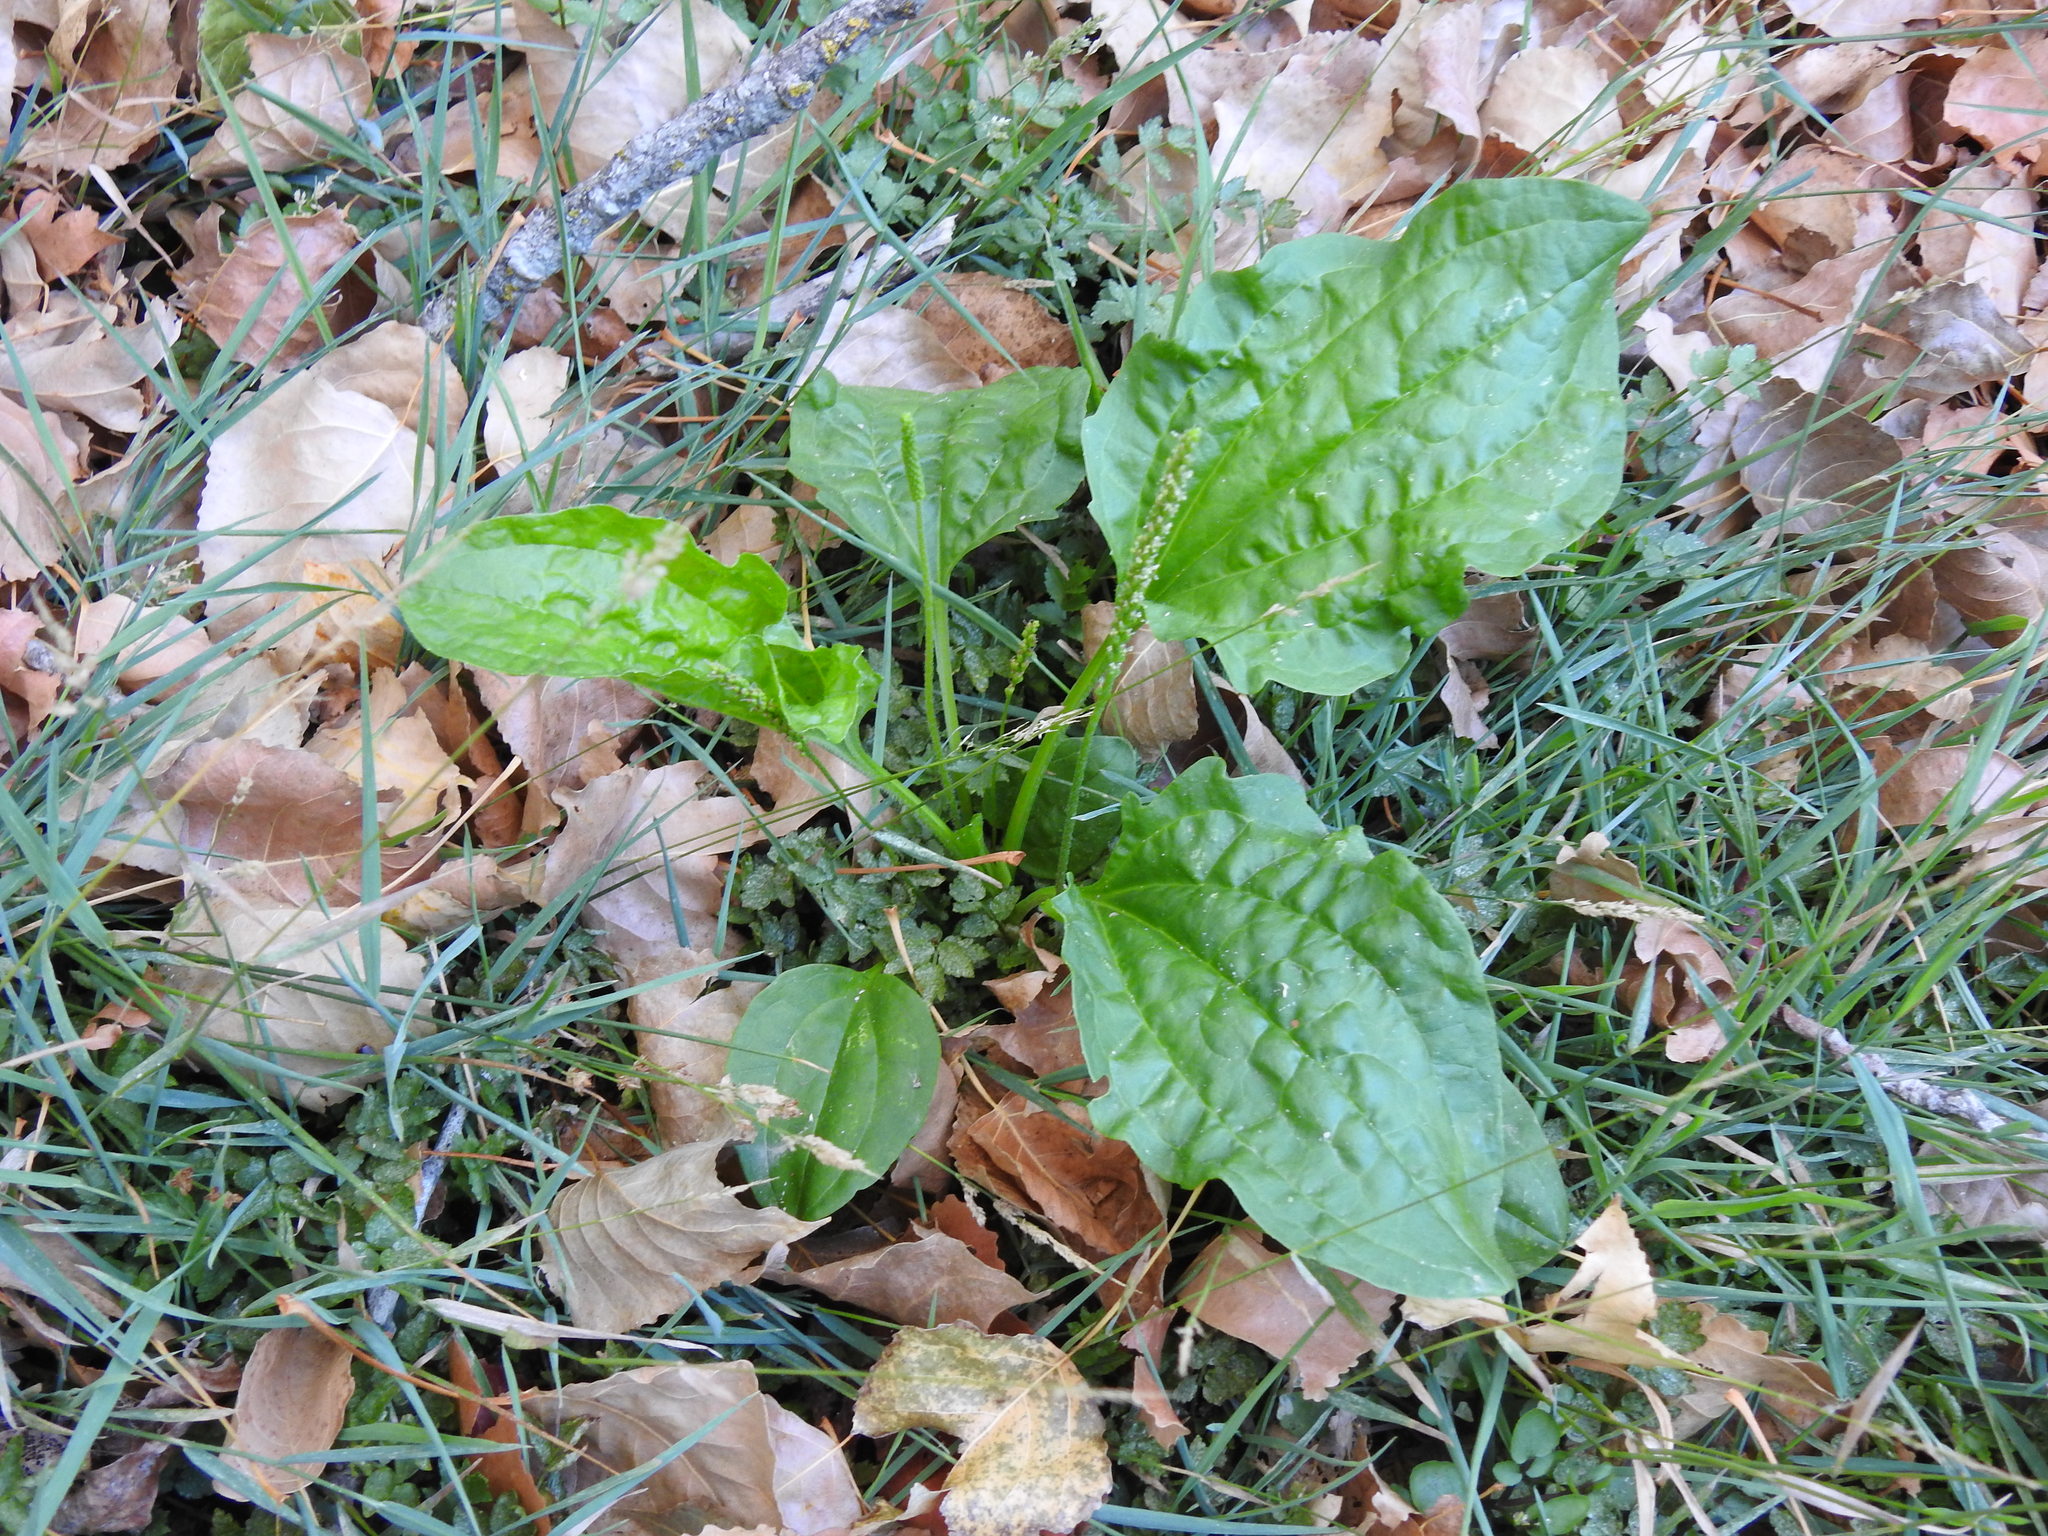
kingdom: Plantae
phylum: Tracheophyta
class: Magnoliopsida
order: Lamiales
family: Plantaginaceae
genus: Plantago
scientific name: Plantago major
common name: Common plantain
